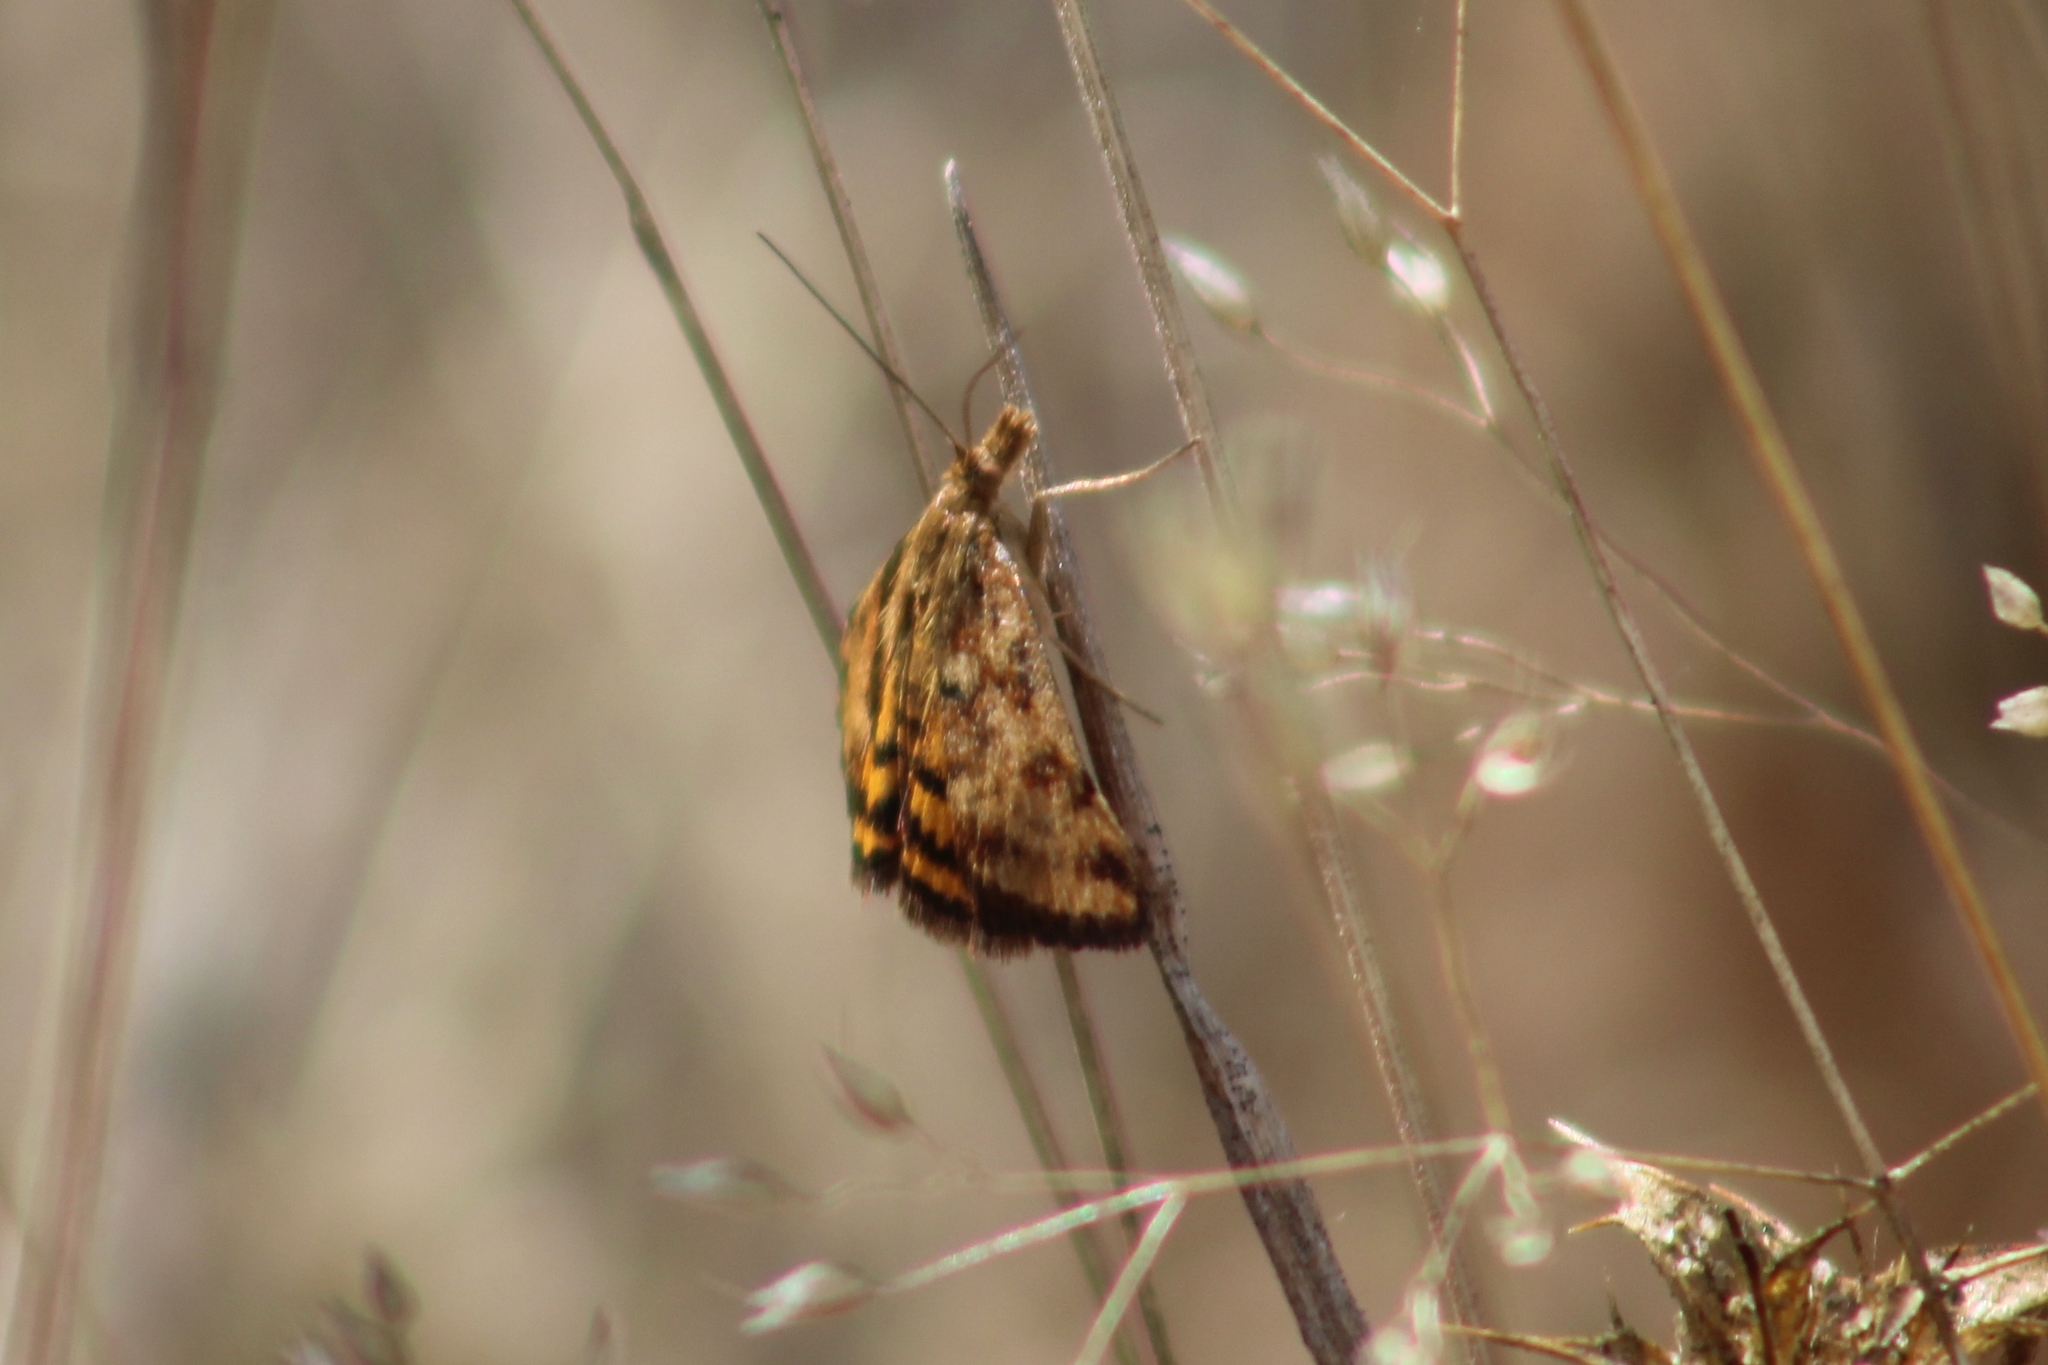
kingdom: Animalia
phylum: Arthropoda
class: Insecta
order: Lepidoptera
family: Crambidae
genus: Pyrausta
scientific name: Pyrausta subsequalis
